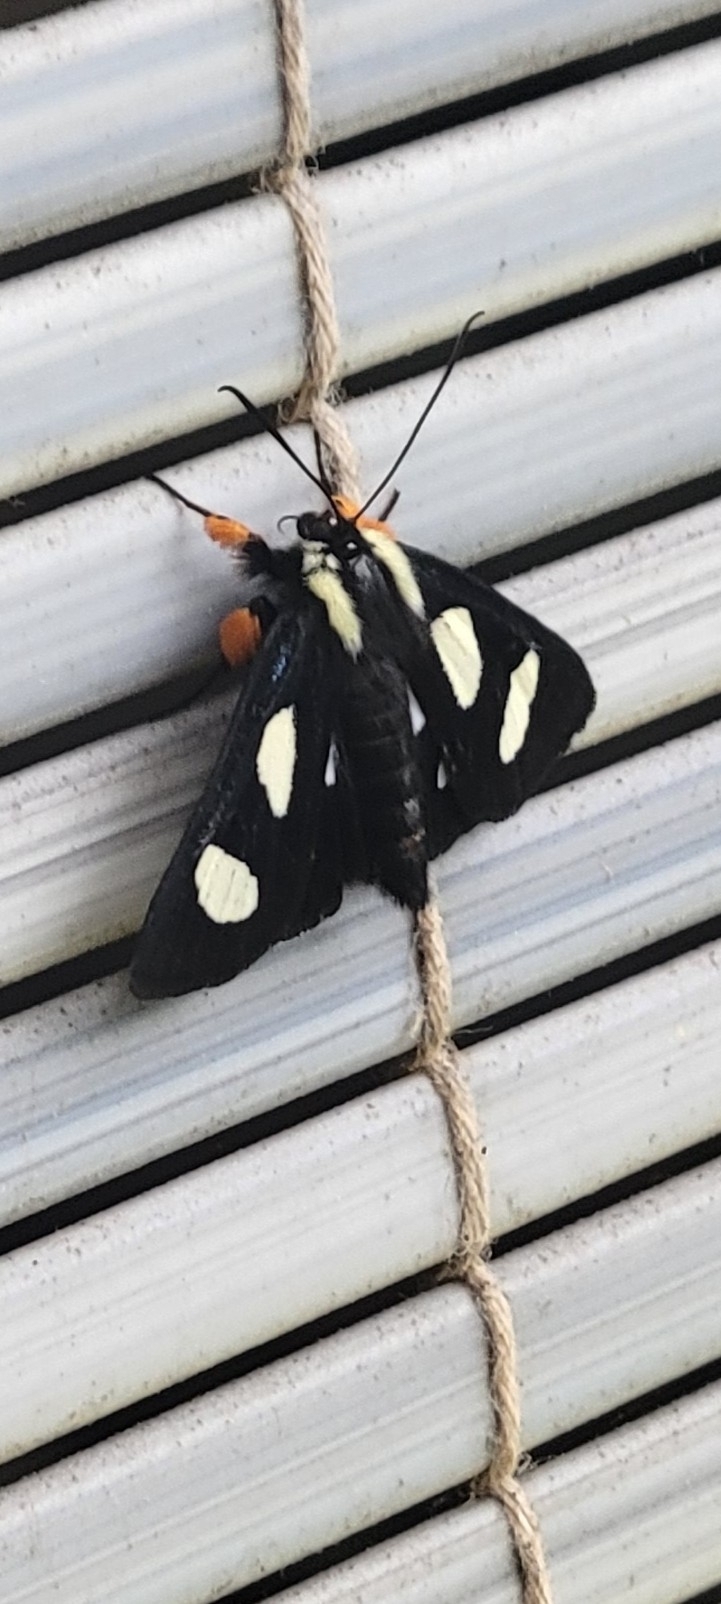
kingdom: Animalia
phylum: Arthropoda
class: Insecta
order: Lepidoptera
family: Noctuidae
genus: Alypia
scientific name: Alypia octomaculata
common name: Eight-spotted forester
